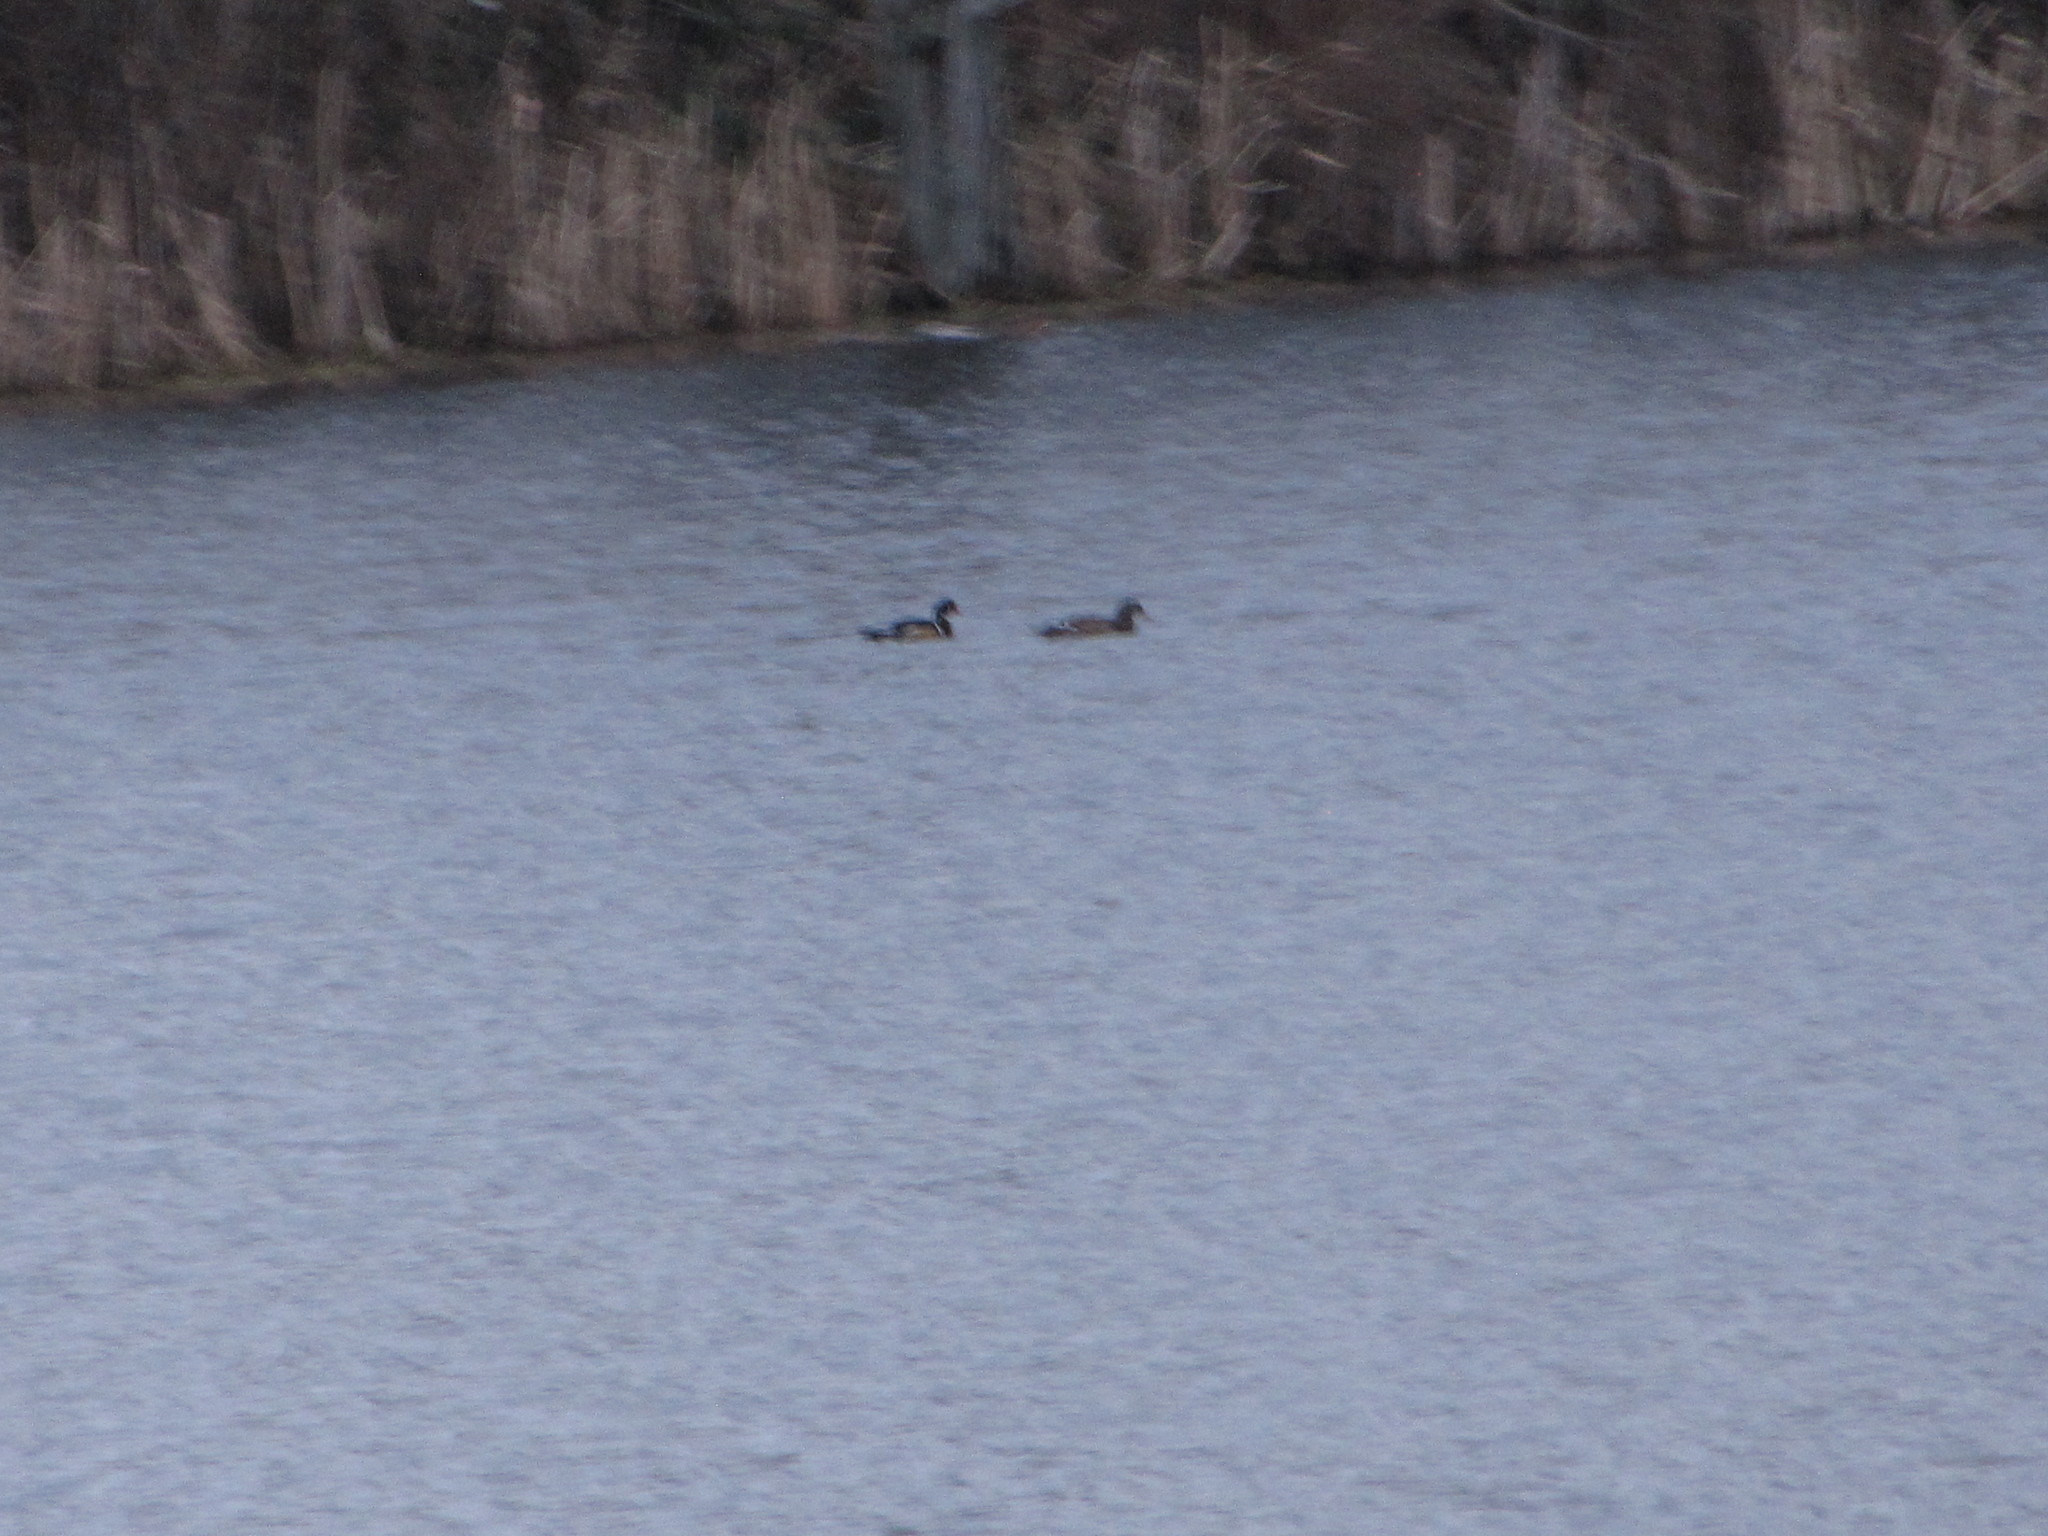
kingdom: Animalia
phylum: Chordata
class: Aves
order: Anseriformes
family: Anatidae
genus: Aix
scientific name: Aix sponsa
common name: Wood duck
